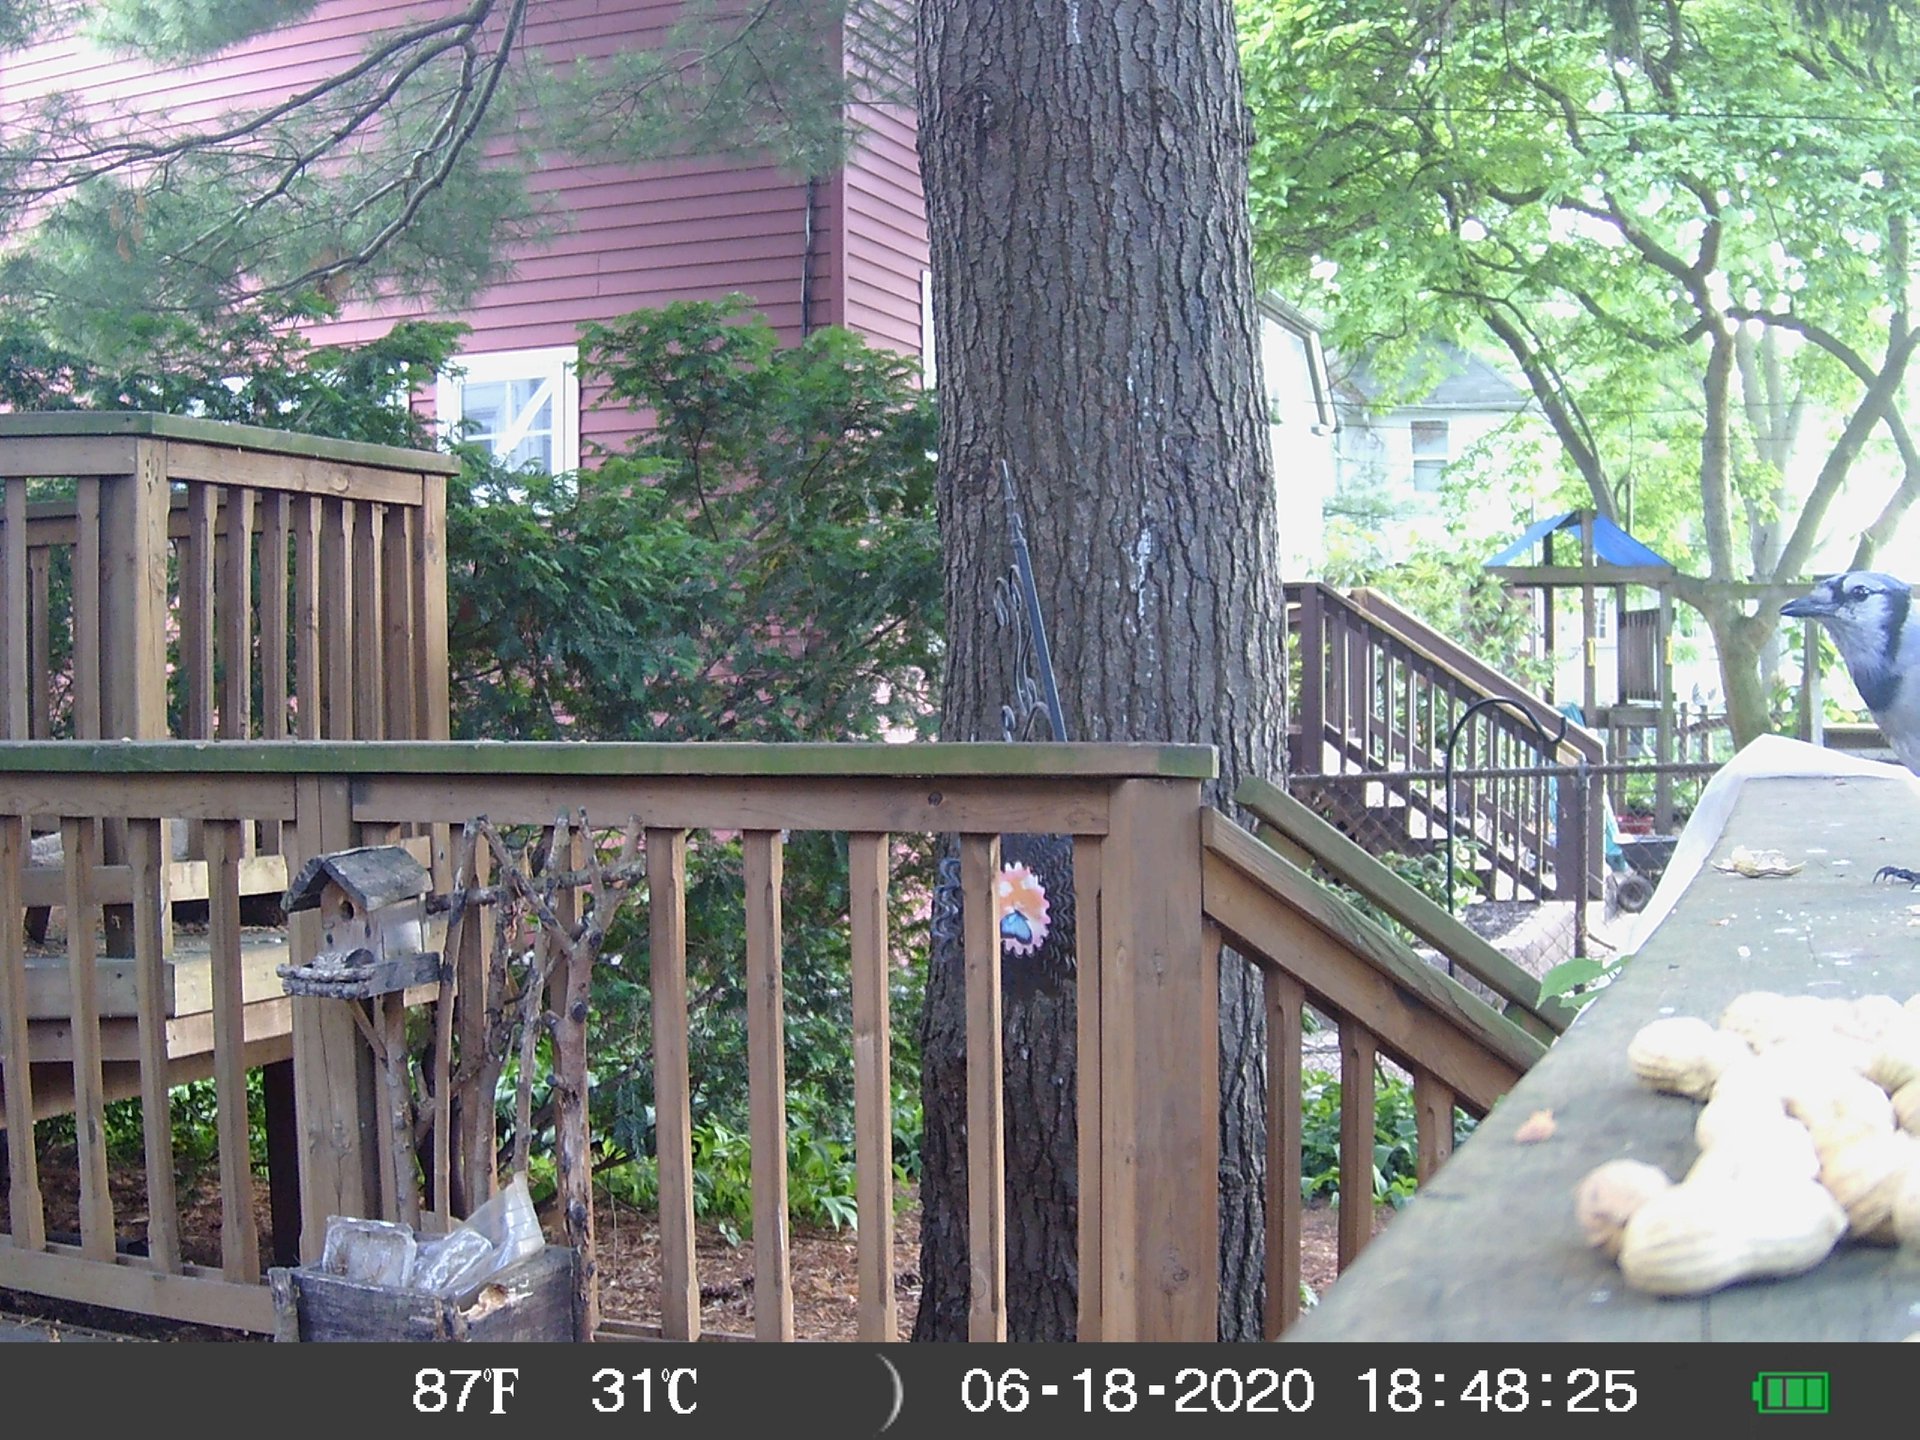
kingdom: Animalia
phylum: Chordata
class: Aves
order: Passeriformes
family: Corvidae
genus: Cyanocitta
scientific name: Cyanocitta cristata
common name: Blue jay
